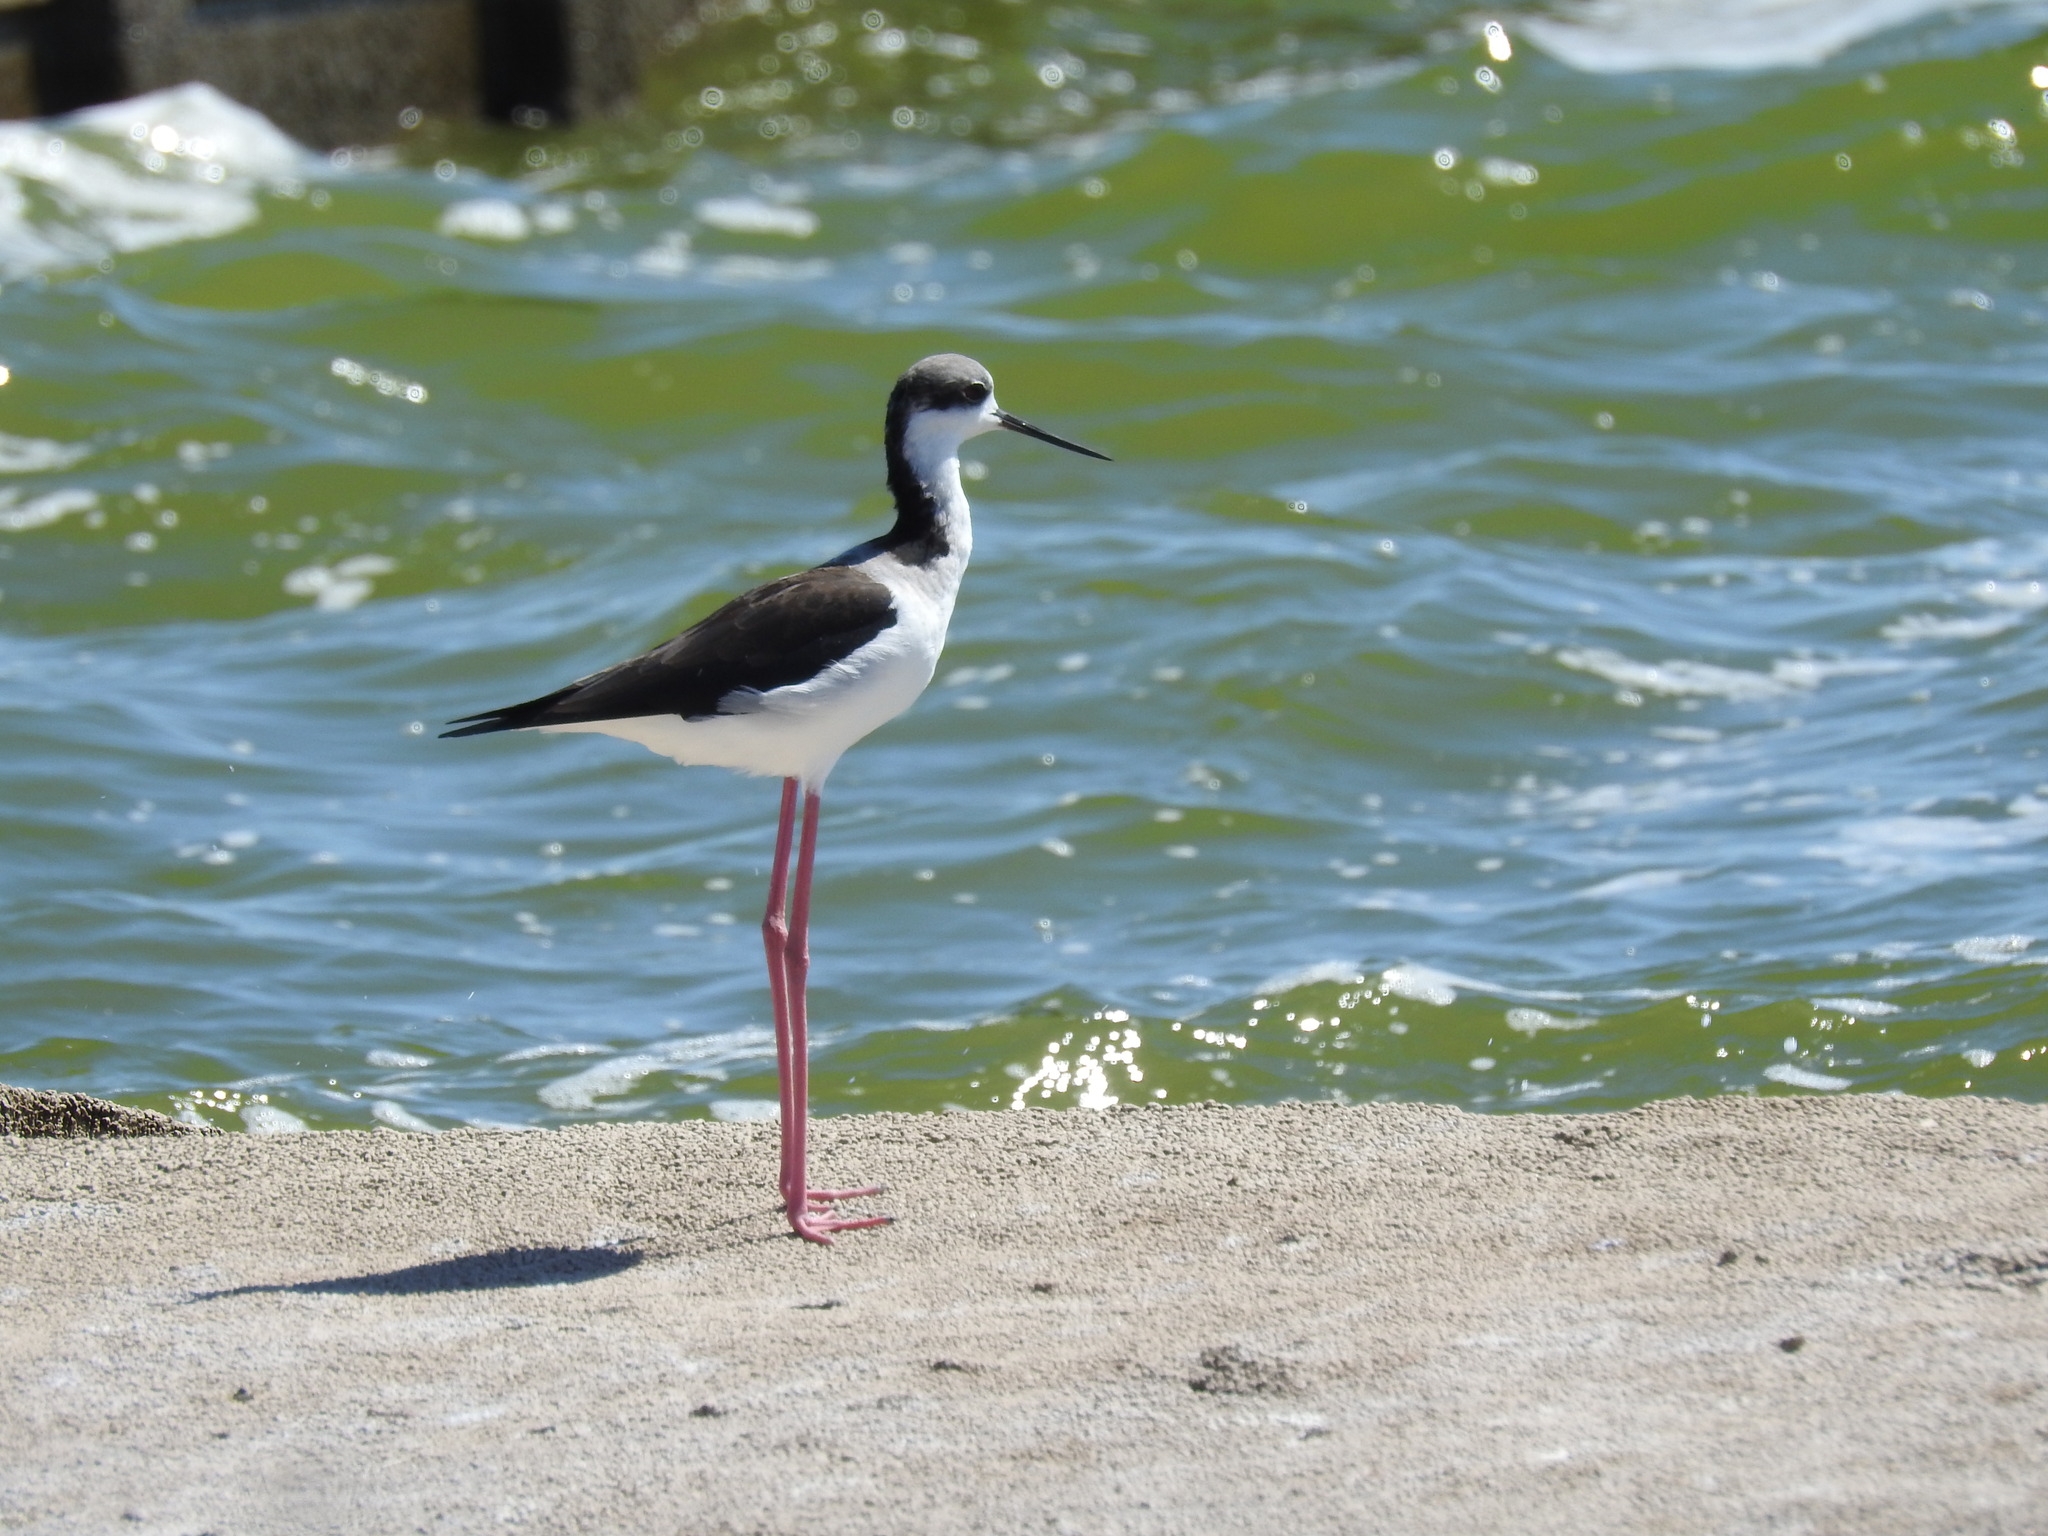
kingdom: Animalia
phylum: Chordata
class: Aves
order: Charadriiformes
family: Recurvirostridae
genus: Himantopus
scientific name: Himantopus mexicanus
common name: Black-necked stilt
